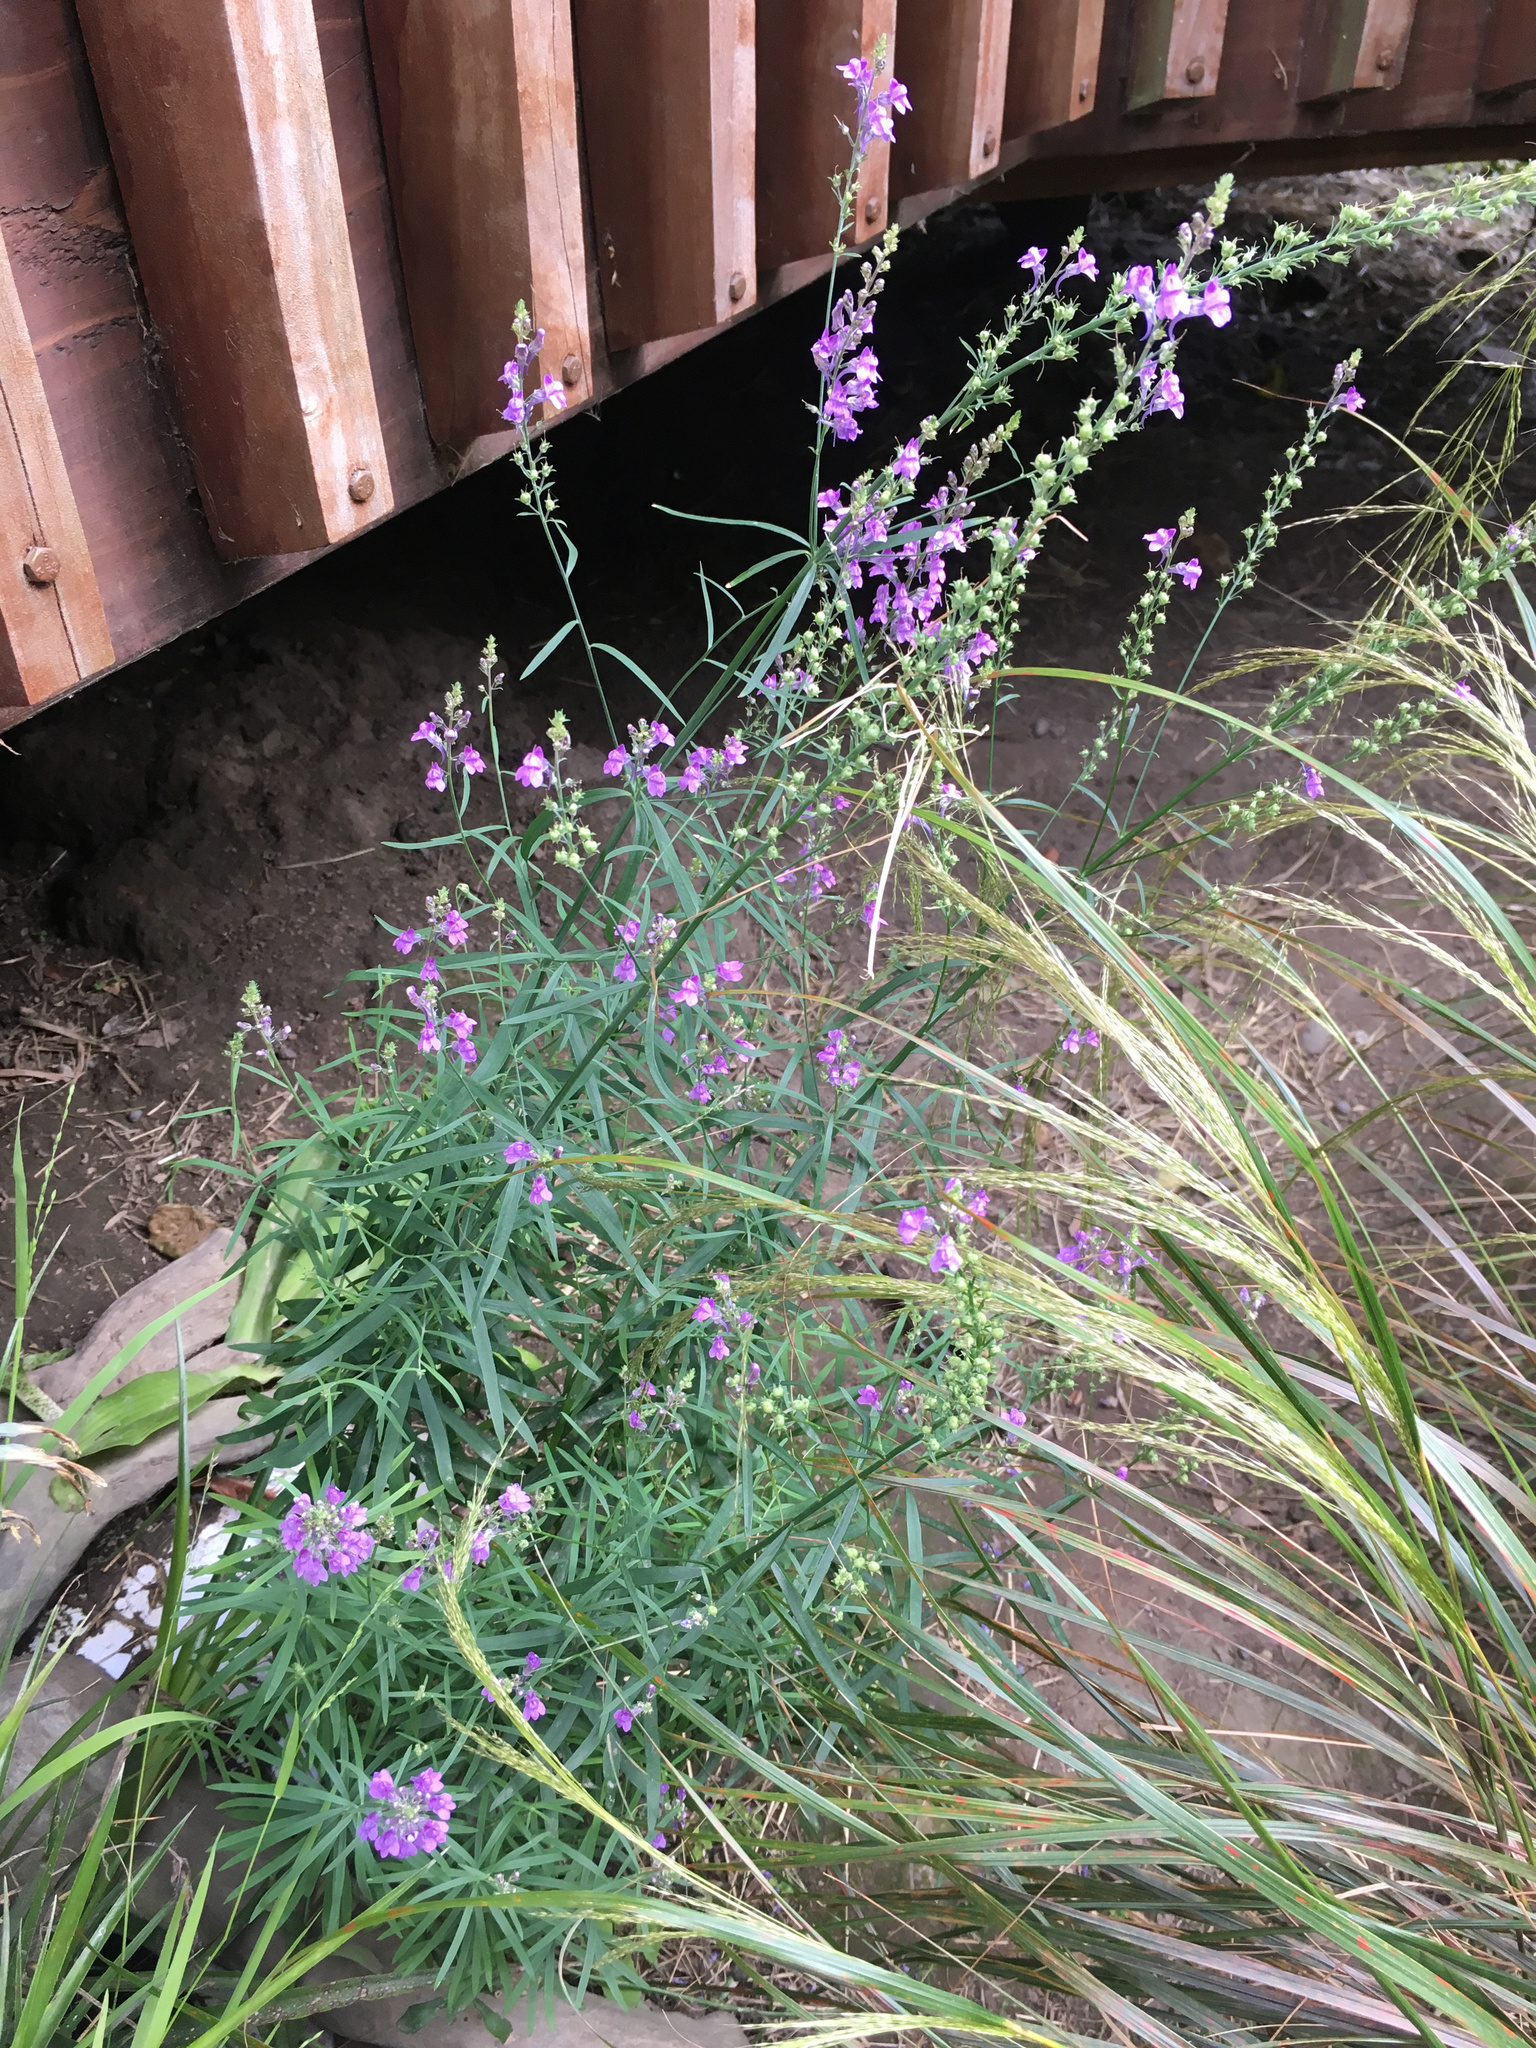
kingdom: Plantae
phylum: Tracheophyta
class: Magnoliopsida
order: Lamiales
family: Plantaginaceae
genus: Linaria
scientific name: Linaria purpurea
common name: Purple toadflax
